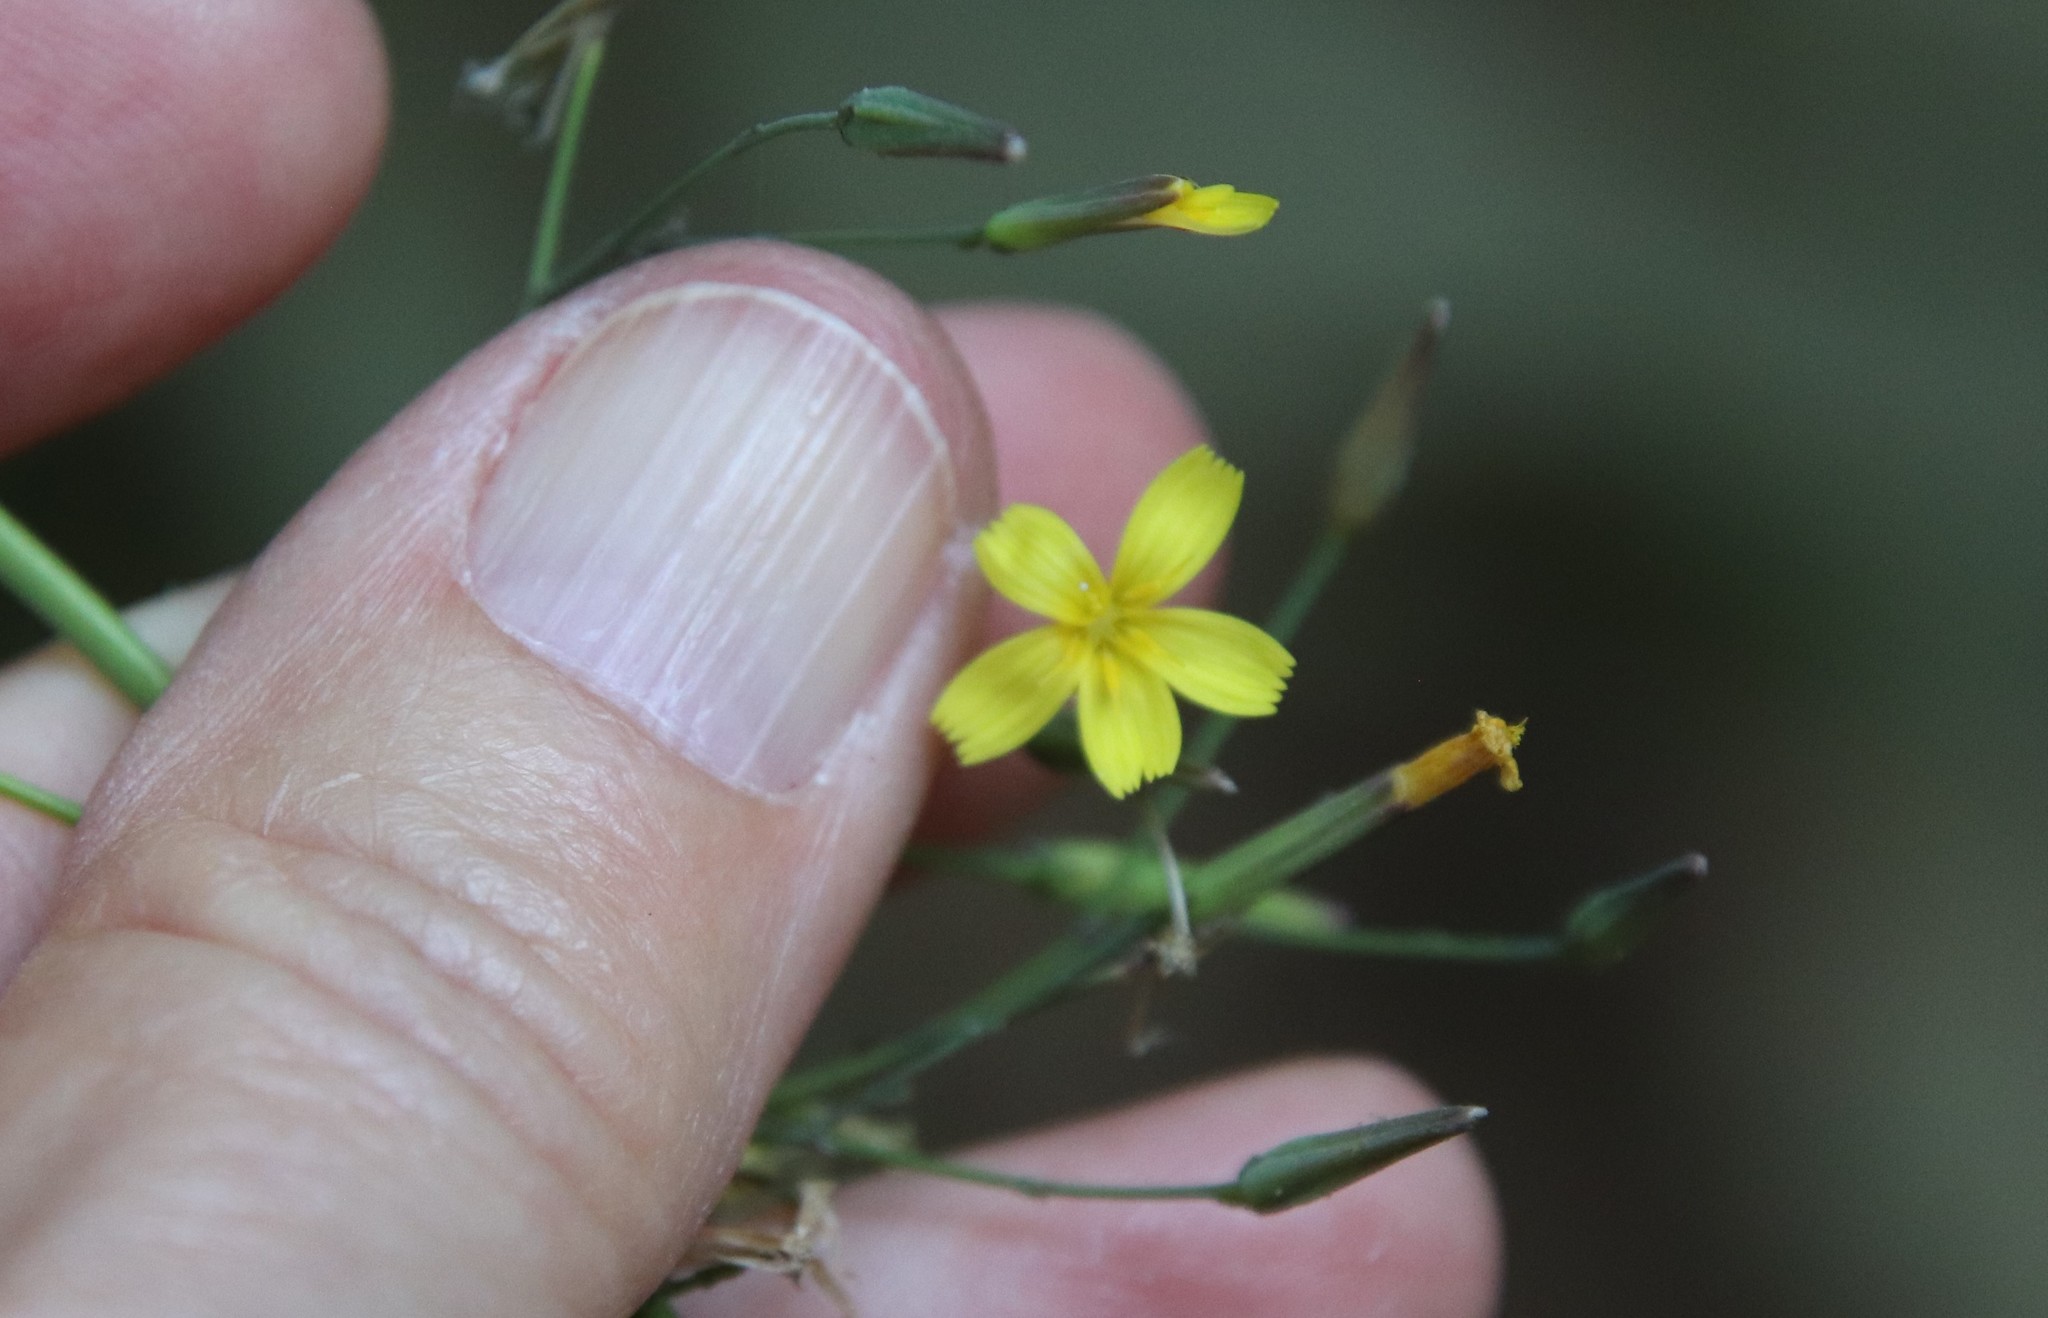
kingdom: Plantae
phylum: Tracheophyta
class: Magnoliopsida
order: Asterales
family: Asteraceae
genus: Mycelis
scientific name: Mycelis muralis
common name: Wall lettuce
